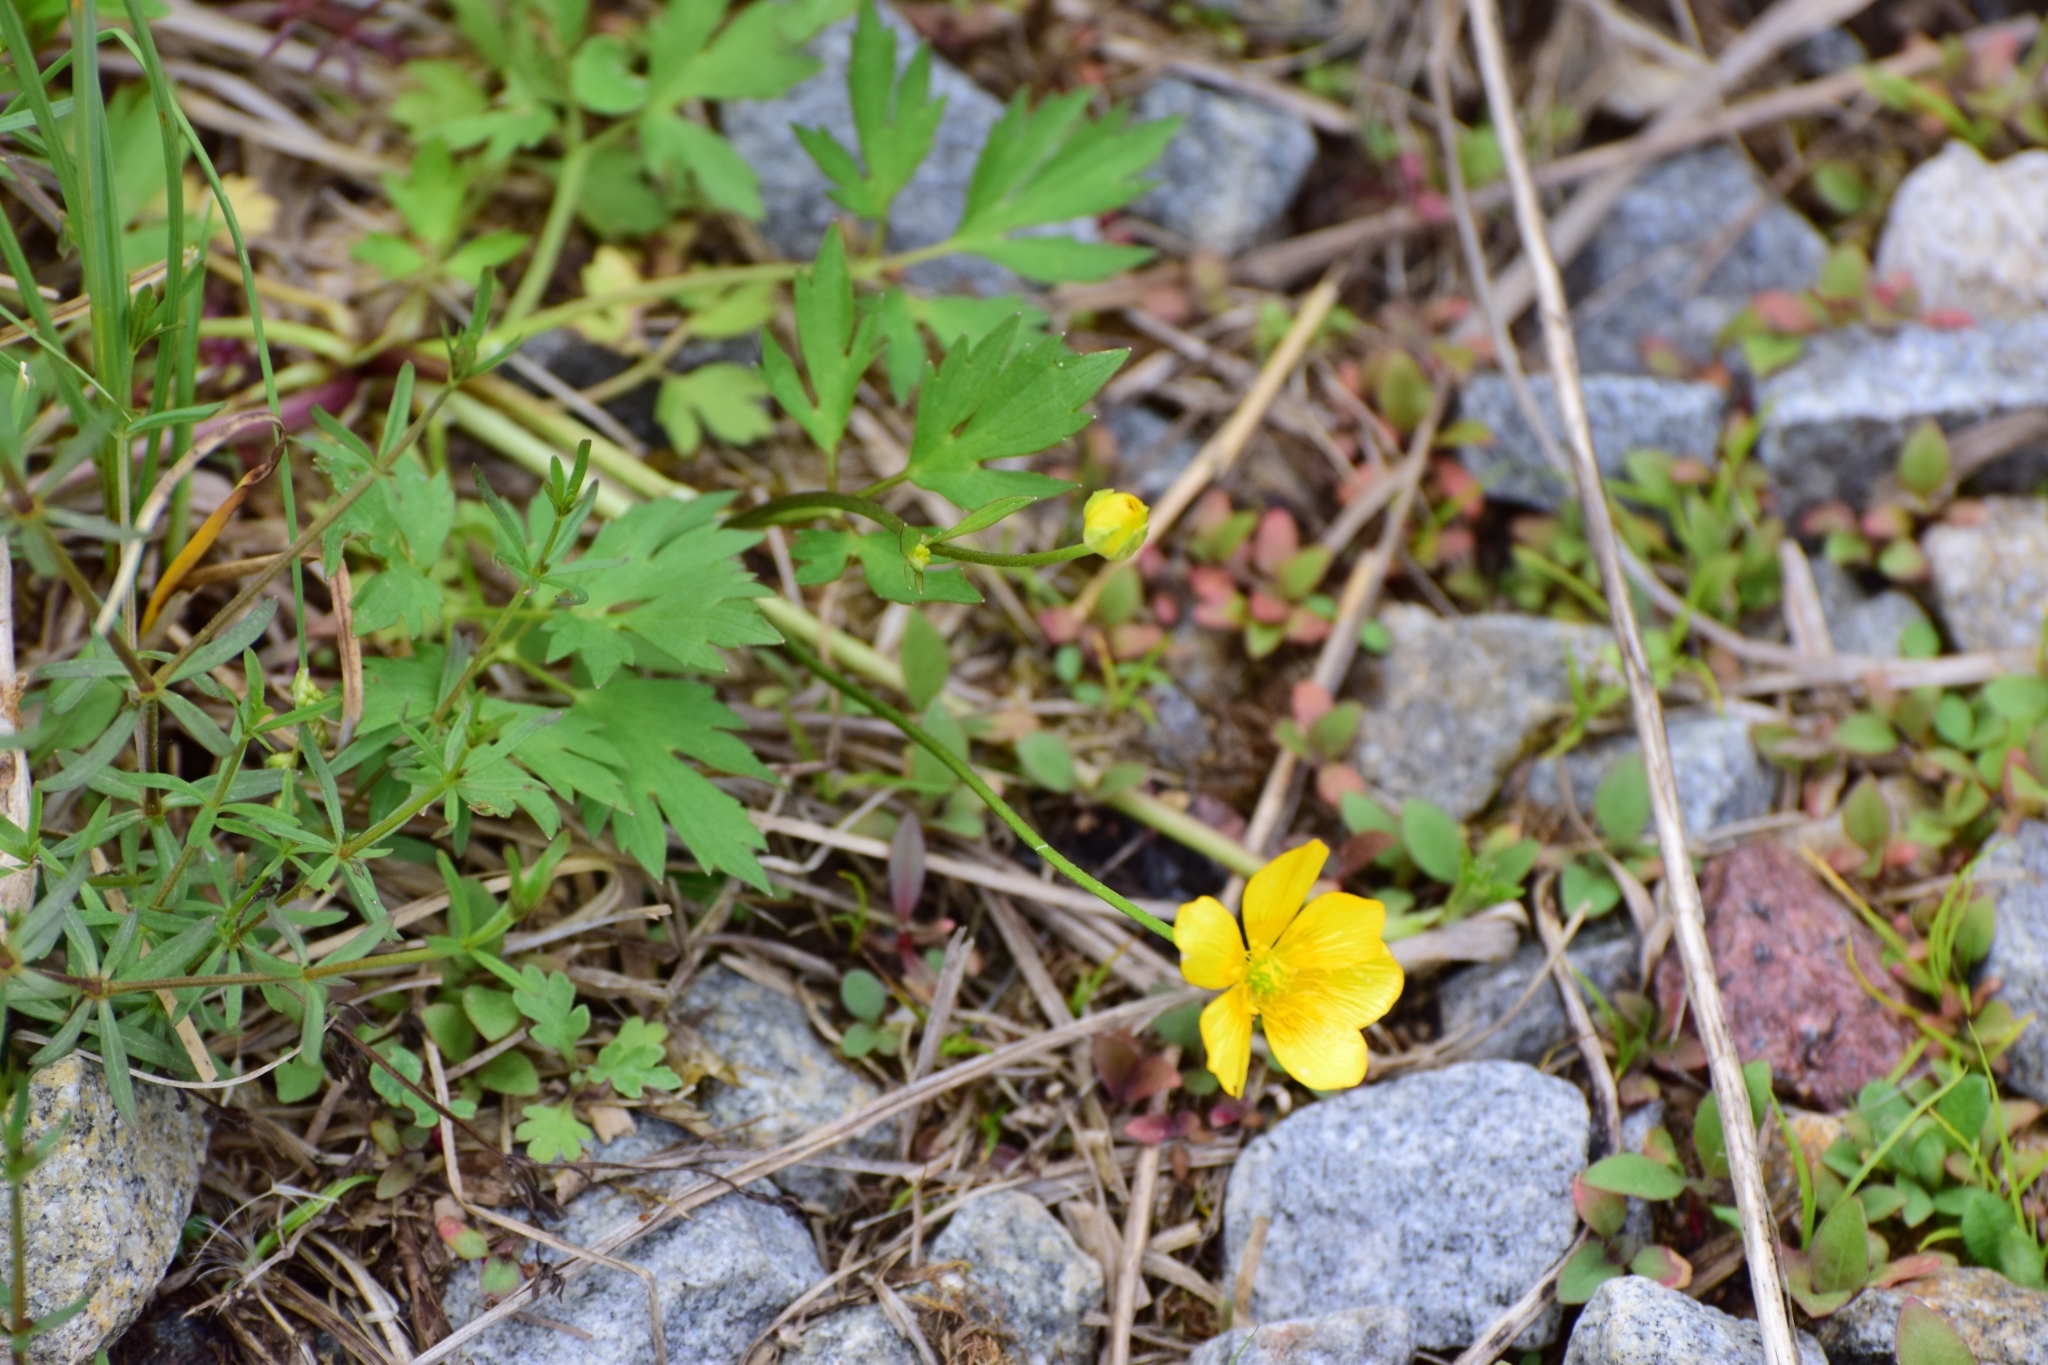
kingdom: Plantae
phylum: Tracheophyta
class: Magnoliopsida
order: Ranunculales
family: Ranunculaceae
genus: Ranunculus
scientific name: Ranunculus repens
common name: Creeping buttercup
